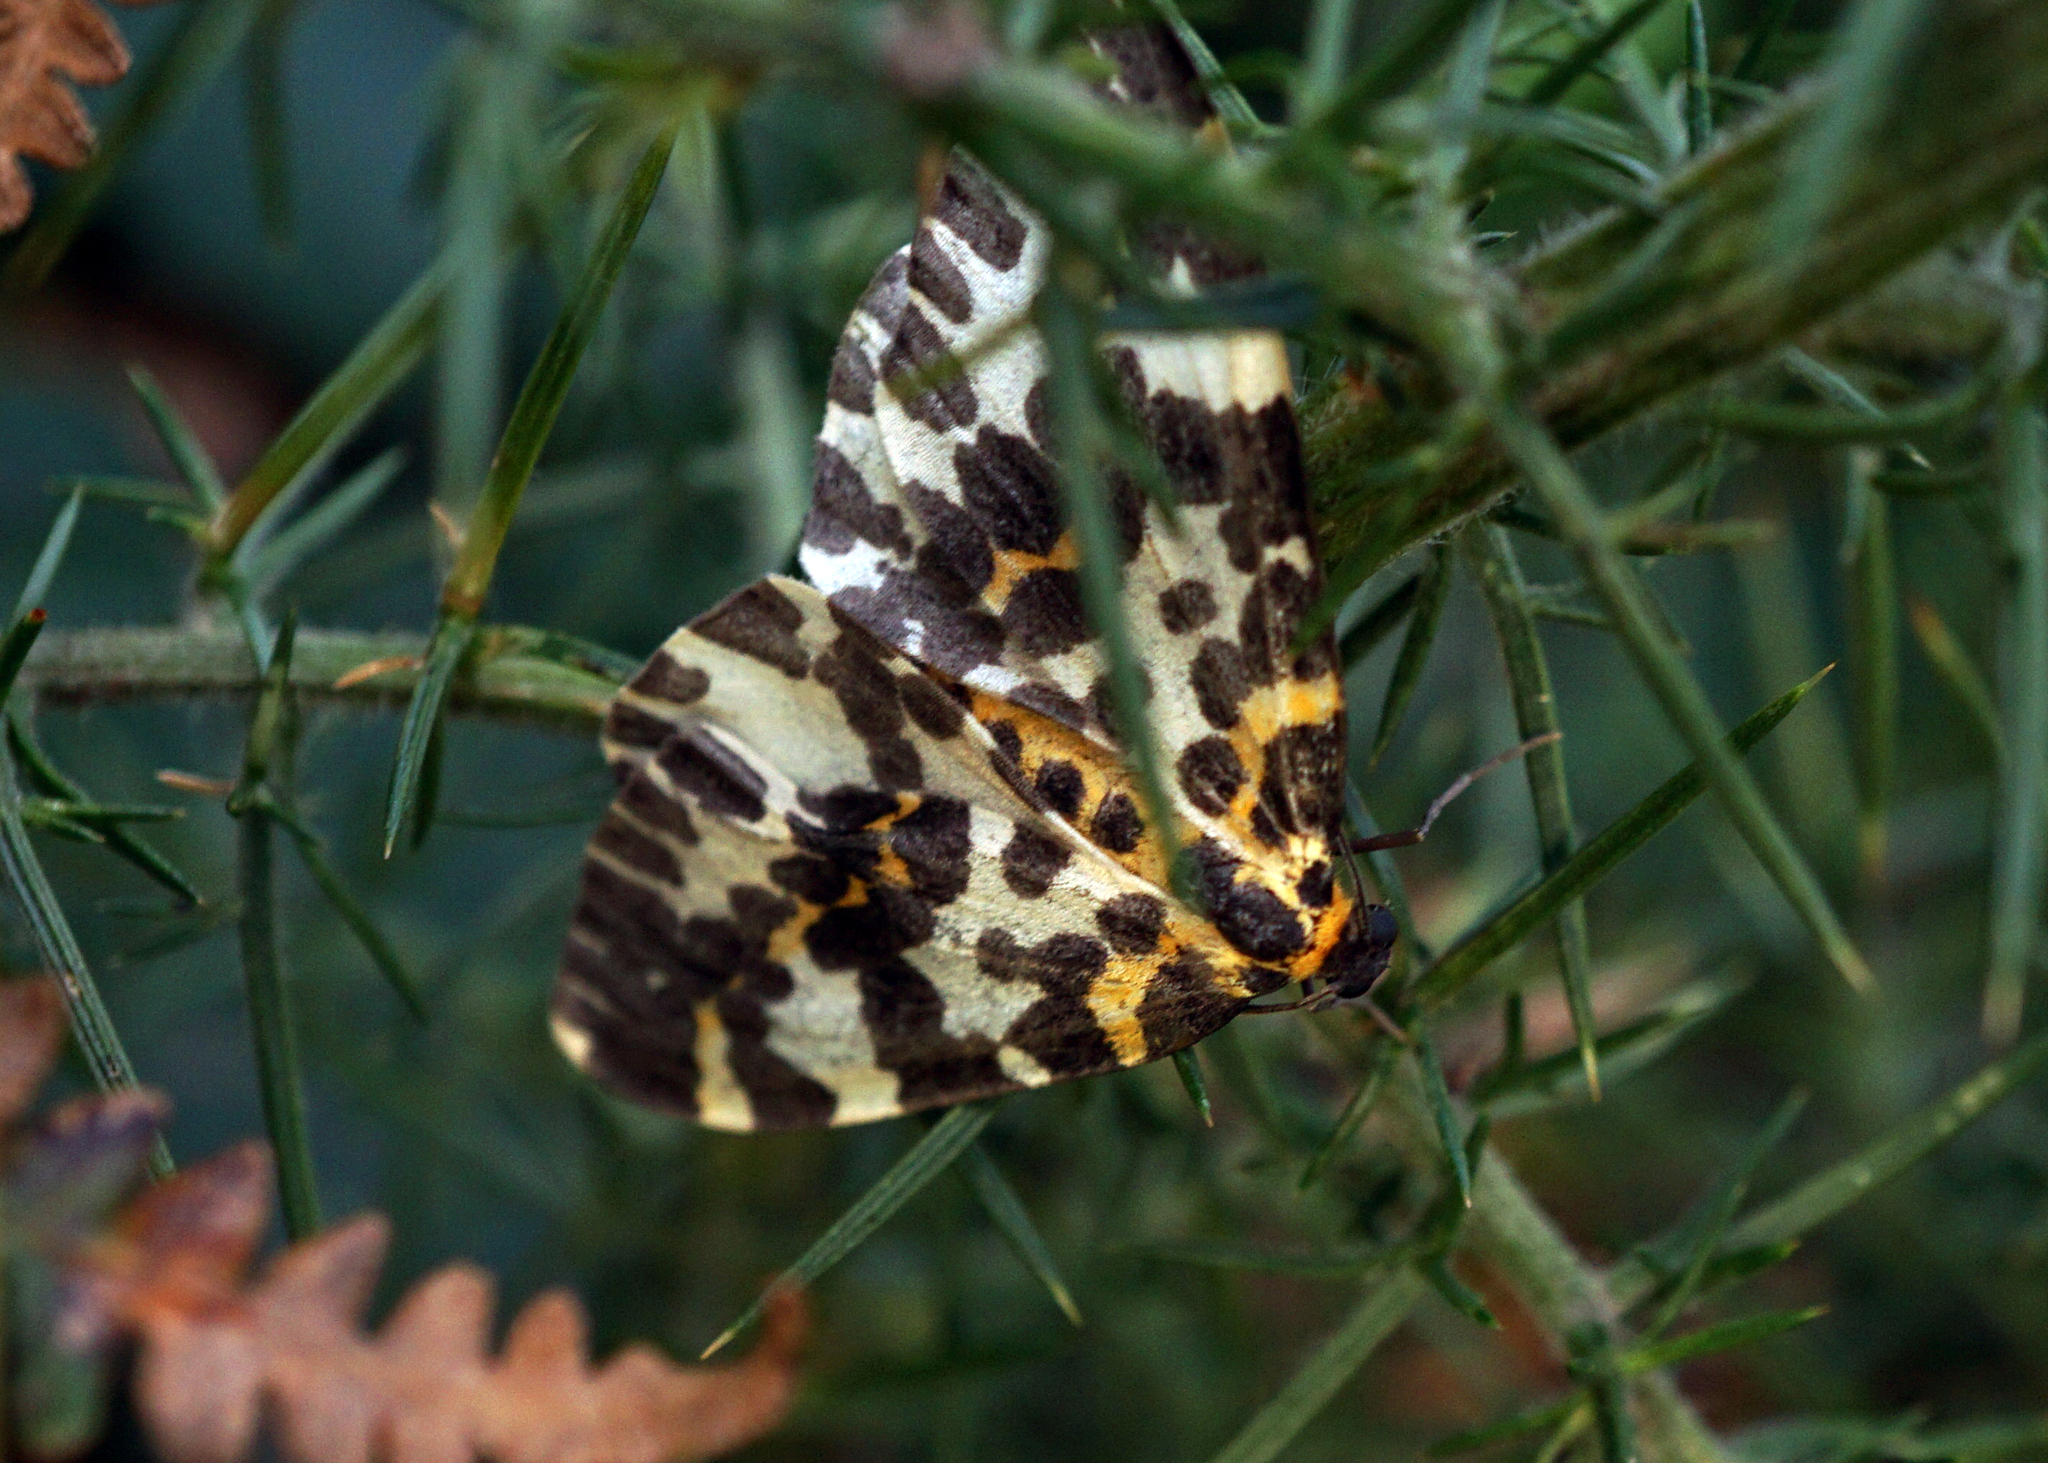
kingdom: Animalia
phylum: Arthropoda
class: Insecta
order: Lepidoptera
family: Geometridae
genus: Abraxas
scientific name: Abraxas grossulariata
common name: Magpie
